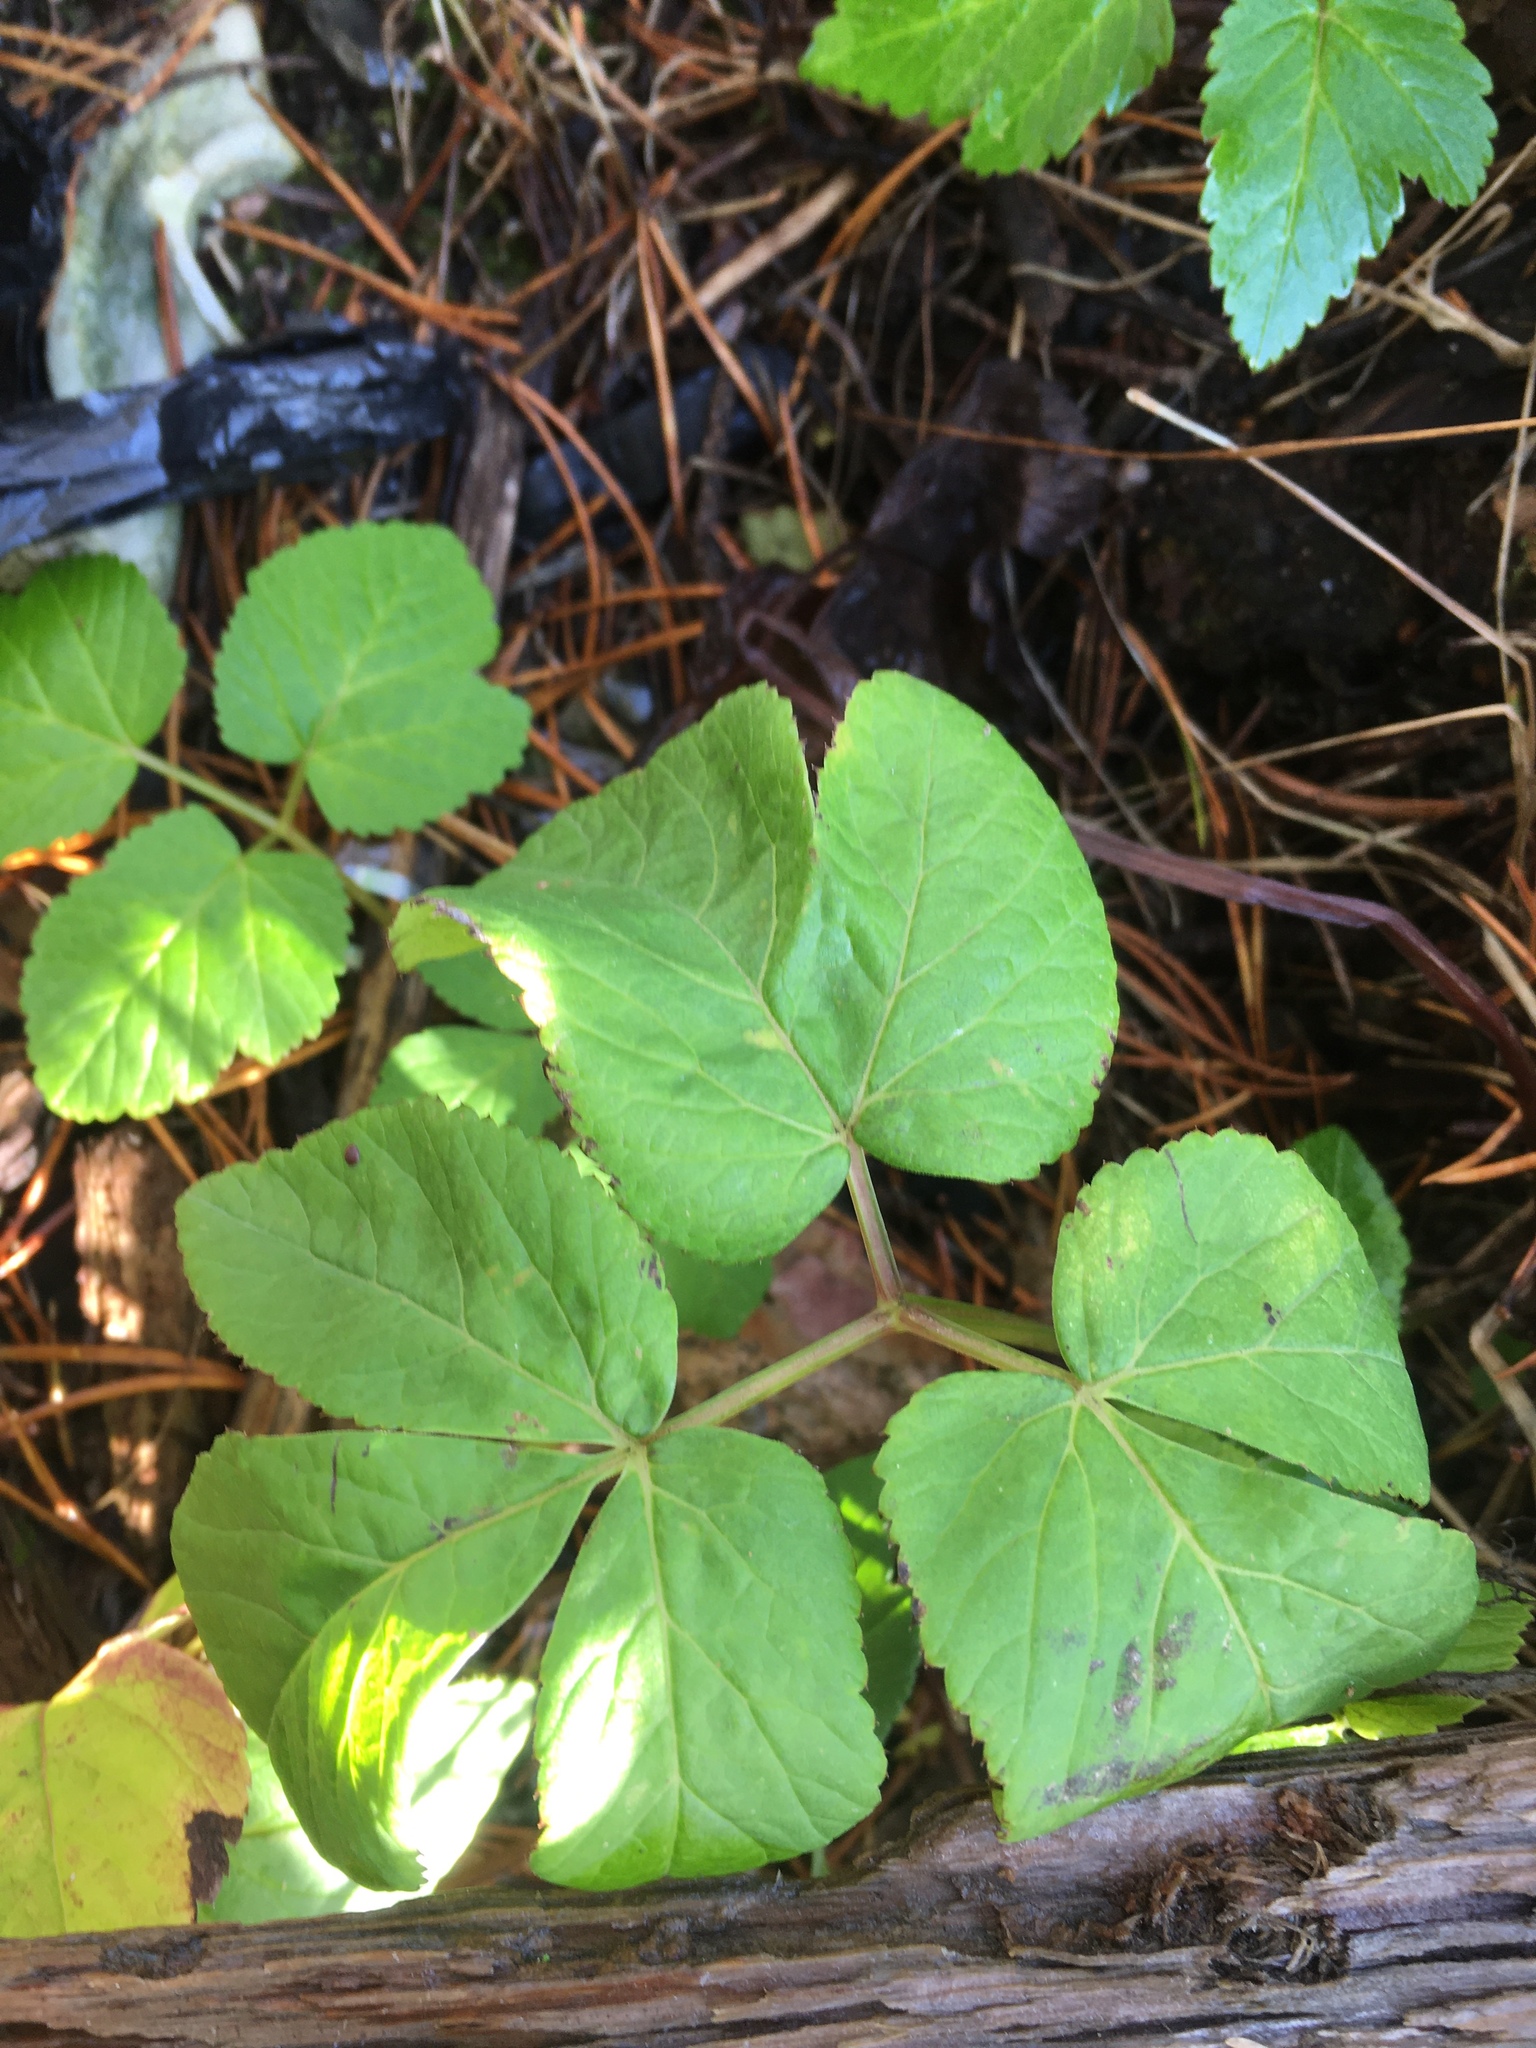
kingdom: Plantae
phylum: Tracheophyta
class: Magnoliopsida
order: Apiales
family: Apiaceae
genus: Aegopodium
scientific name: Aegopodium podagraria
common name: Ground-elder
